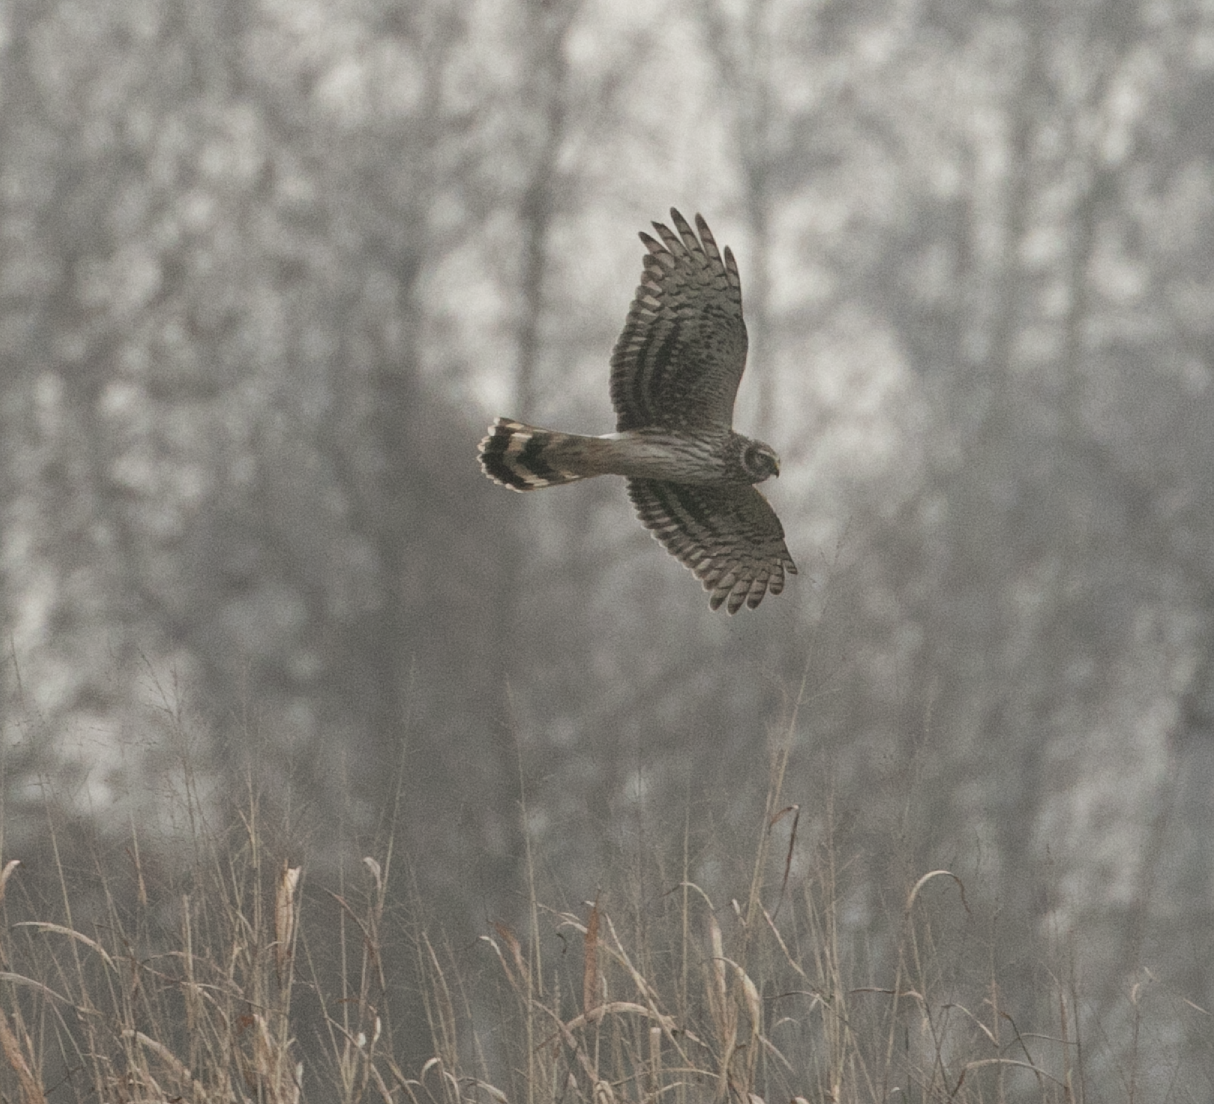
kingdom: Animalia
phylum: Chordata
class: Aves
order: Accipitriformes
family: Accipitridae
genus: Circus
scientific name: Circus cyaneus
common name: Hen harrier
